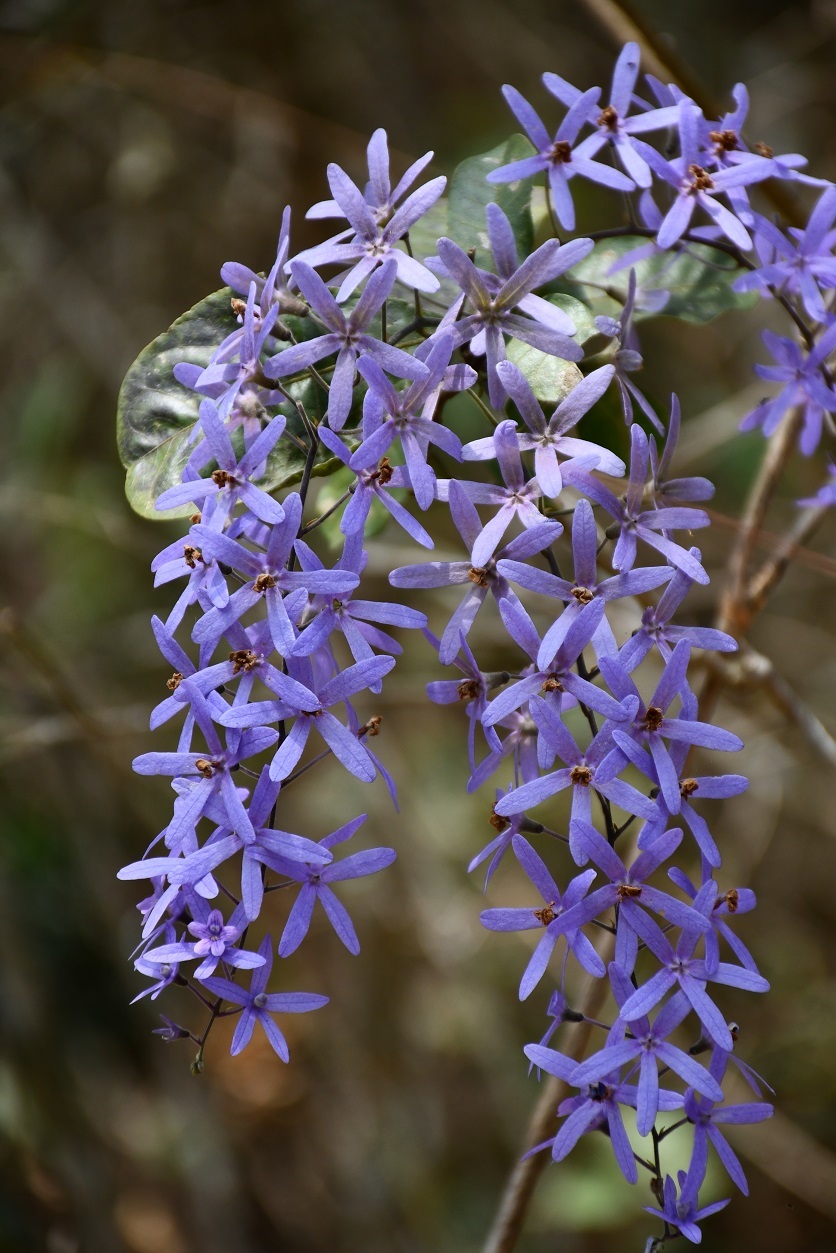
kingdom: Plantae
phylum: Tracheophyta
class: Magnoliopsida
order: Lamiales
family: Verbenaceae
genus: Petrea
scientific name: Petrea volubilis
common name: Queen's-wreath
